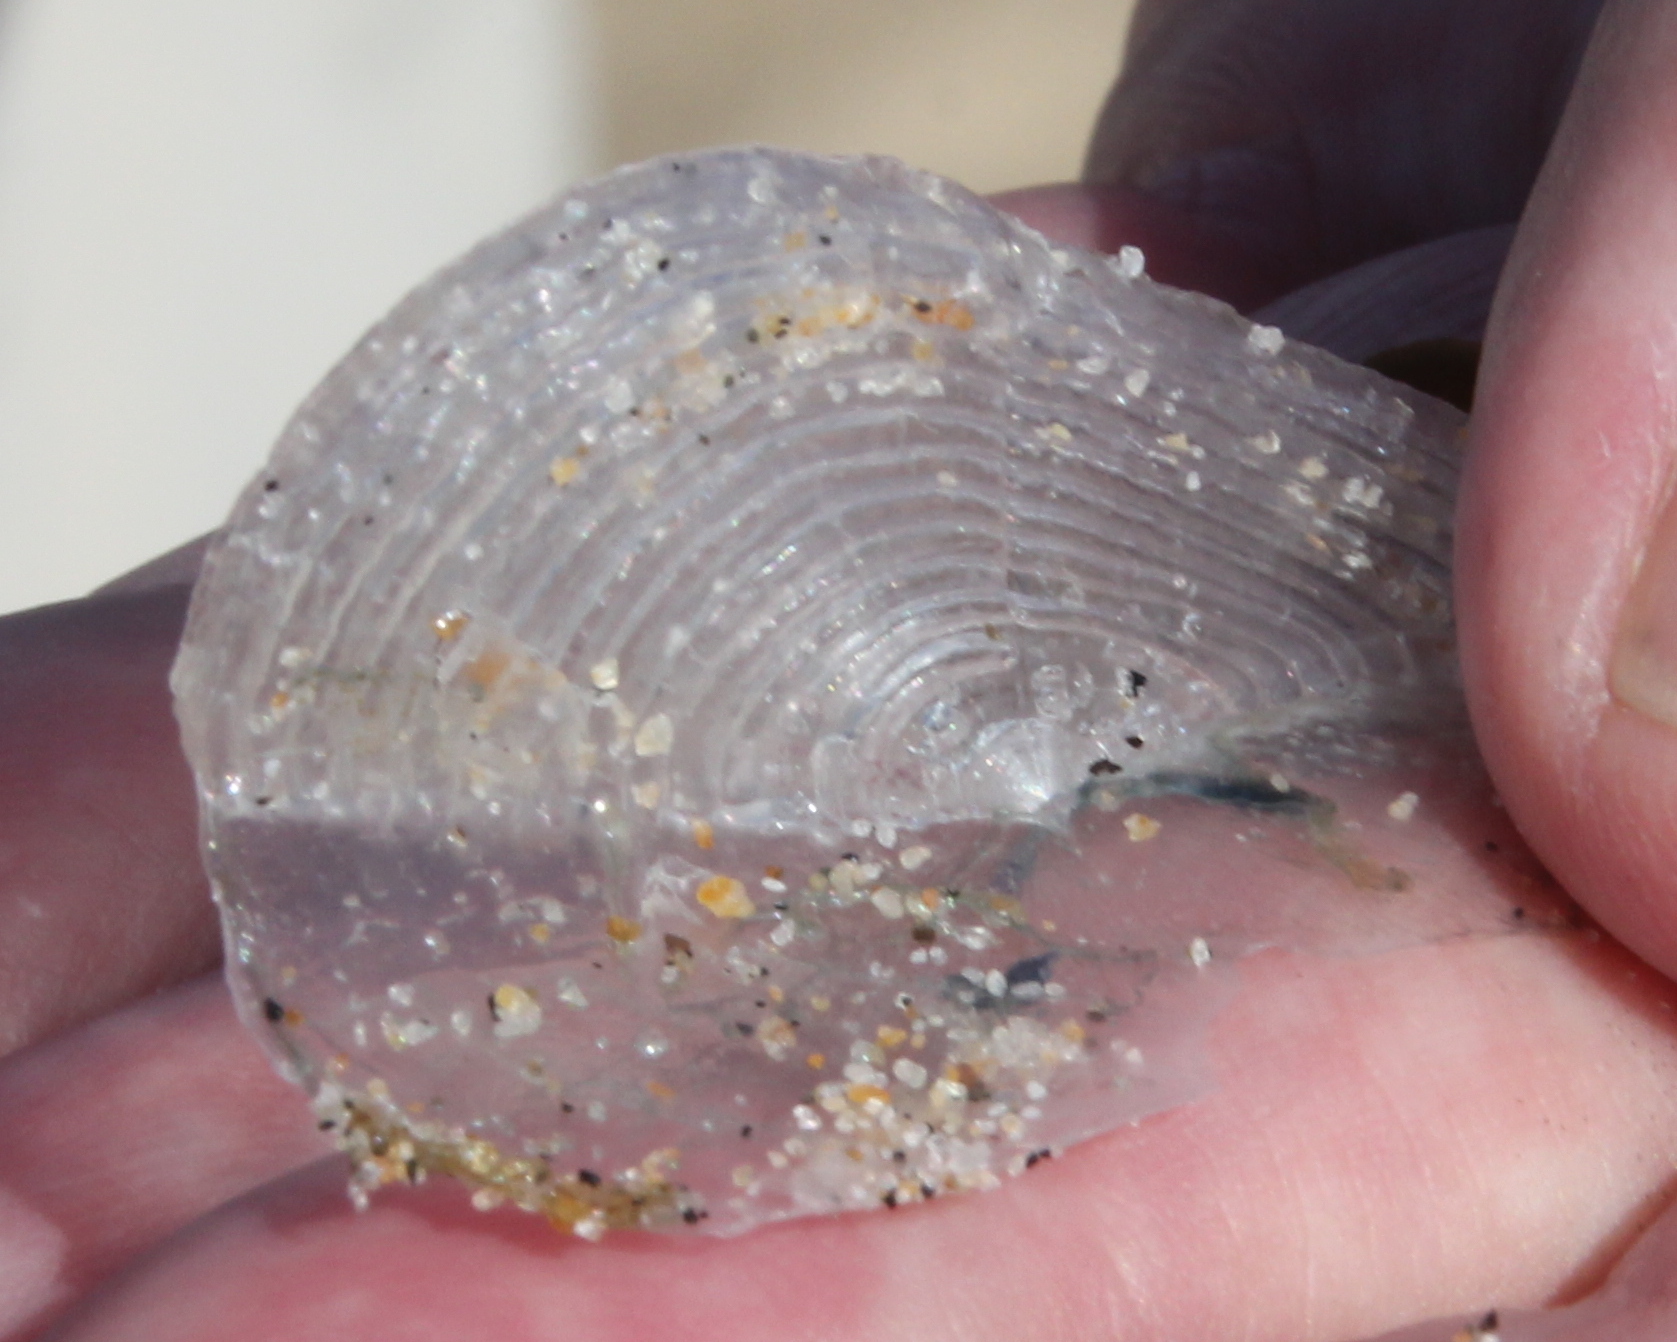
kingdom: Animalia
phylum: Cnidaria
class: Hydrozoa
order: Anthoathecata
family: Porpitidae
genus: Velella
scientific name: Velella velella
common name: By-the-wind-sailor
